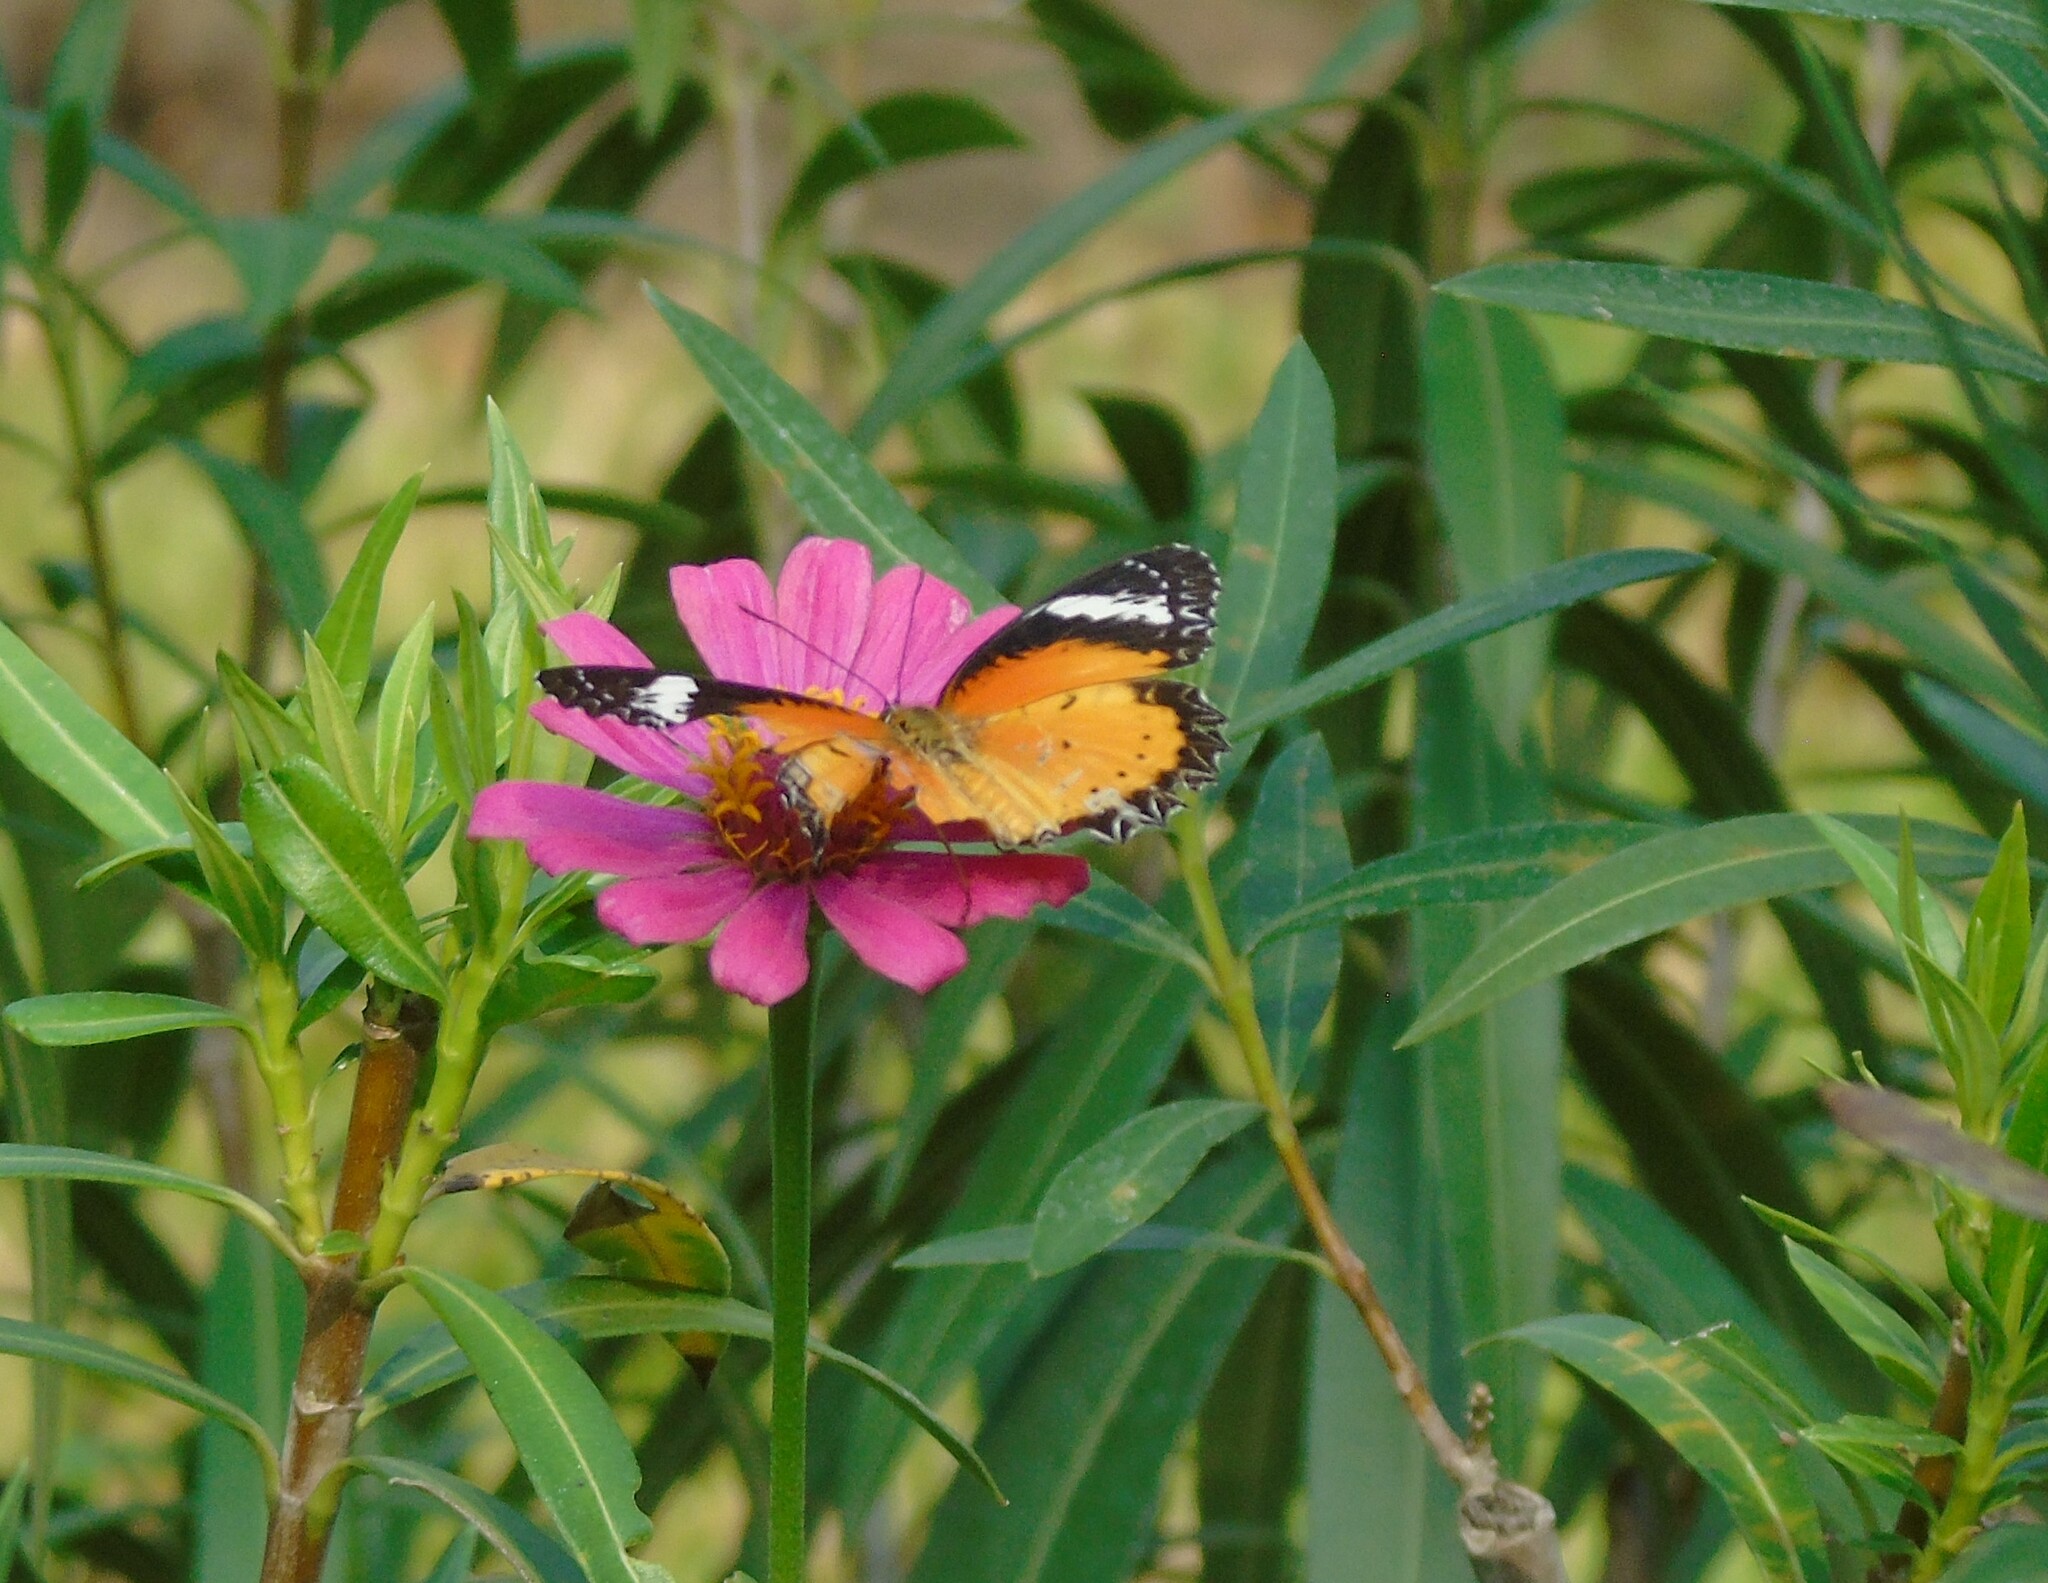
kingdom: Animalia
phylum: Arthropoda
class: Insecta
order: Lepidoptera
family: Nymphalidae
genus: Cethosia
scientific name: Cethosia cyane
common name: Leopard lacewing butterfly
